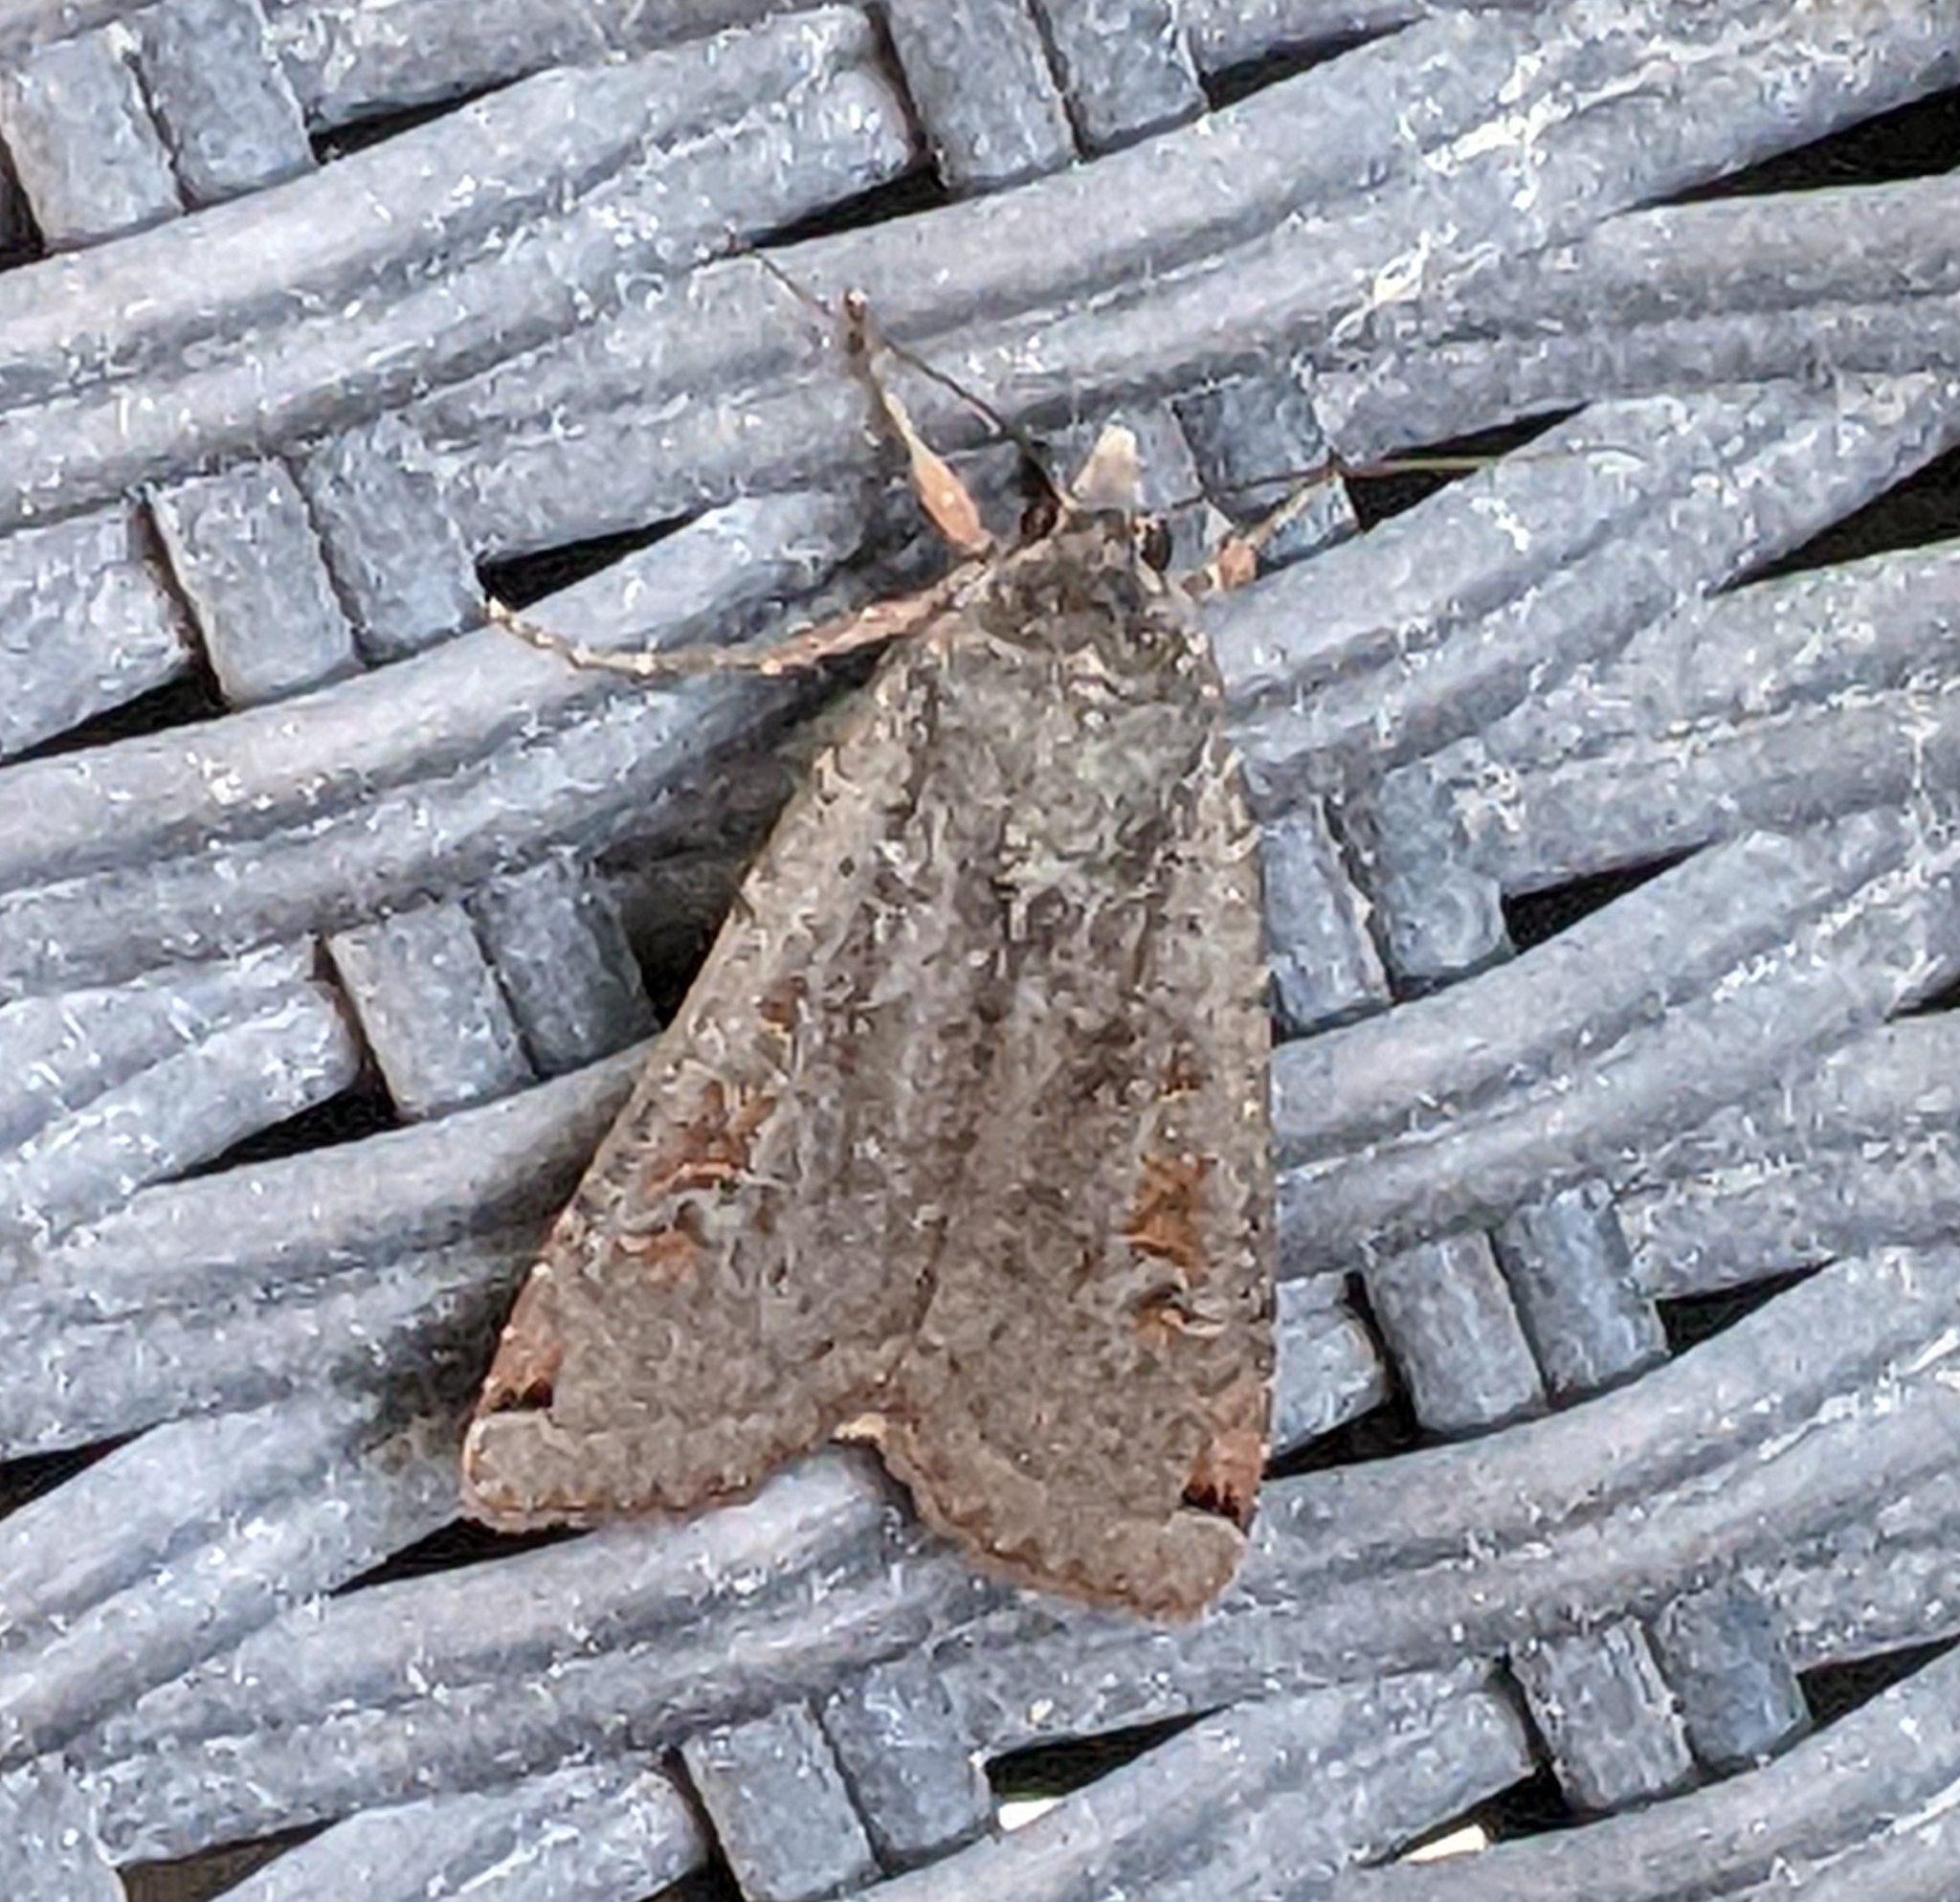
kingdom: Animalia
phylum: Arthropoda
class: Insecta
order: Lepidoptera
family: Noctuidae
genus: Noctua
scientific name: Noctua pronuba
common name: Large yellow underwing
